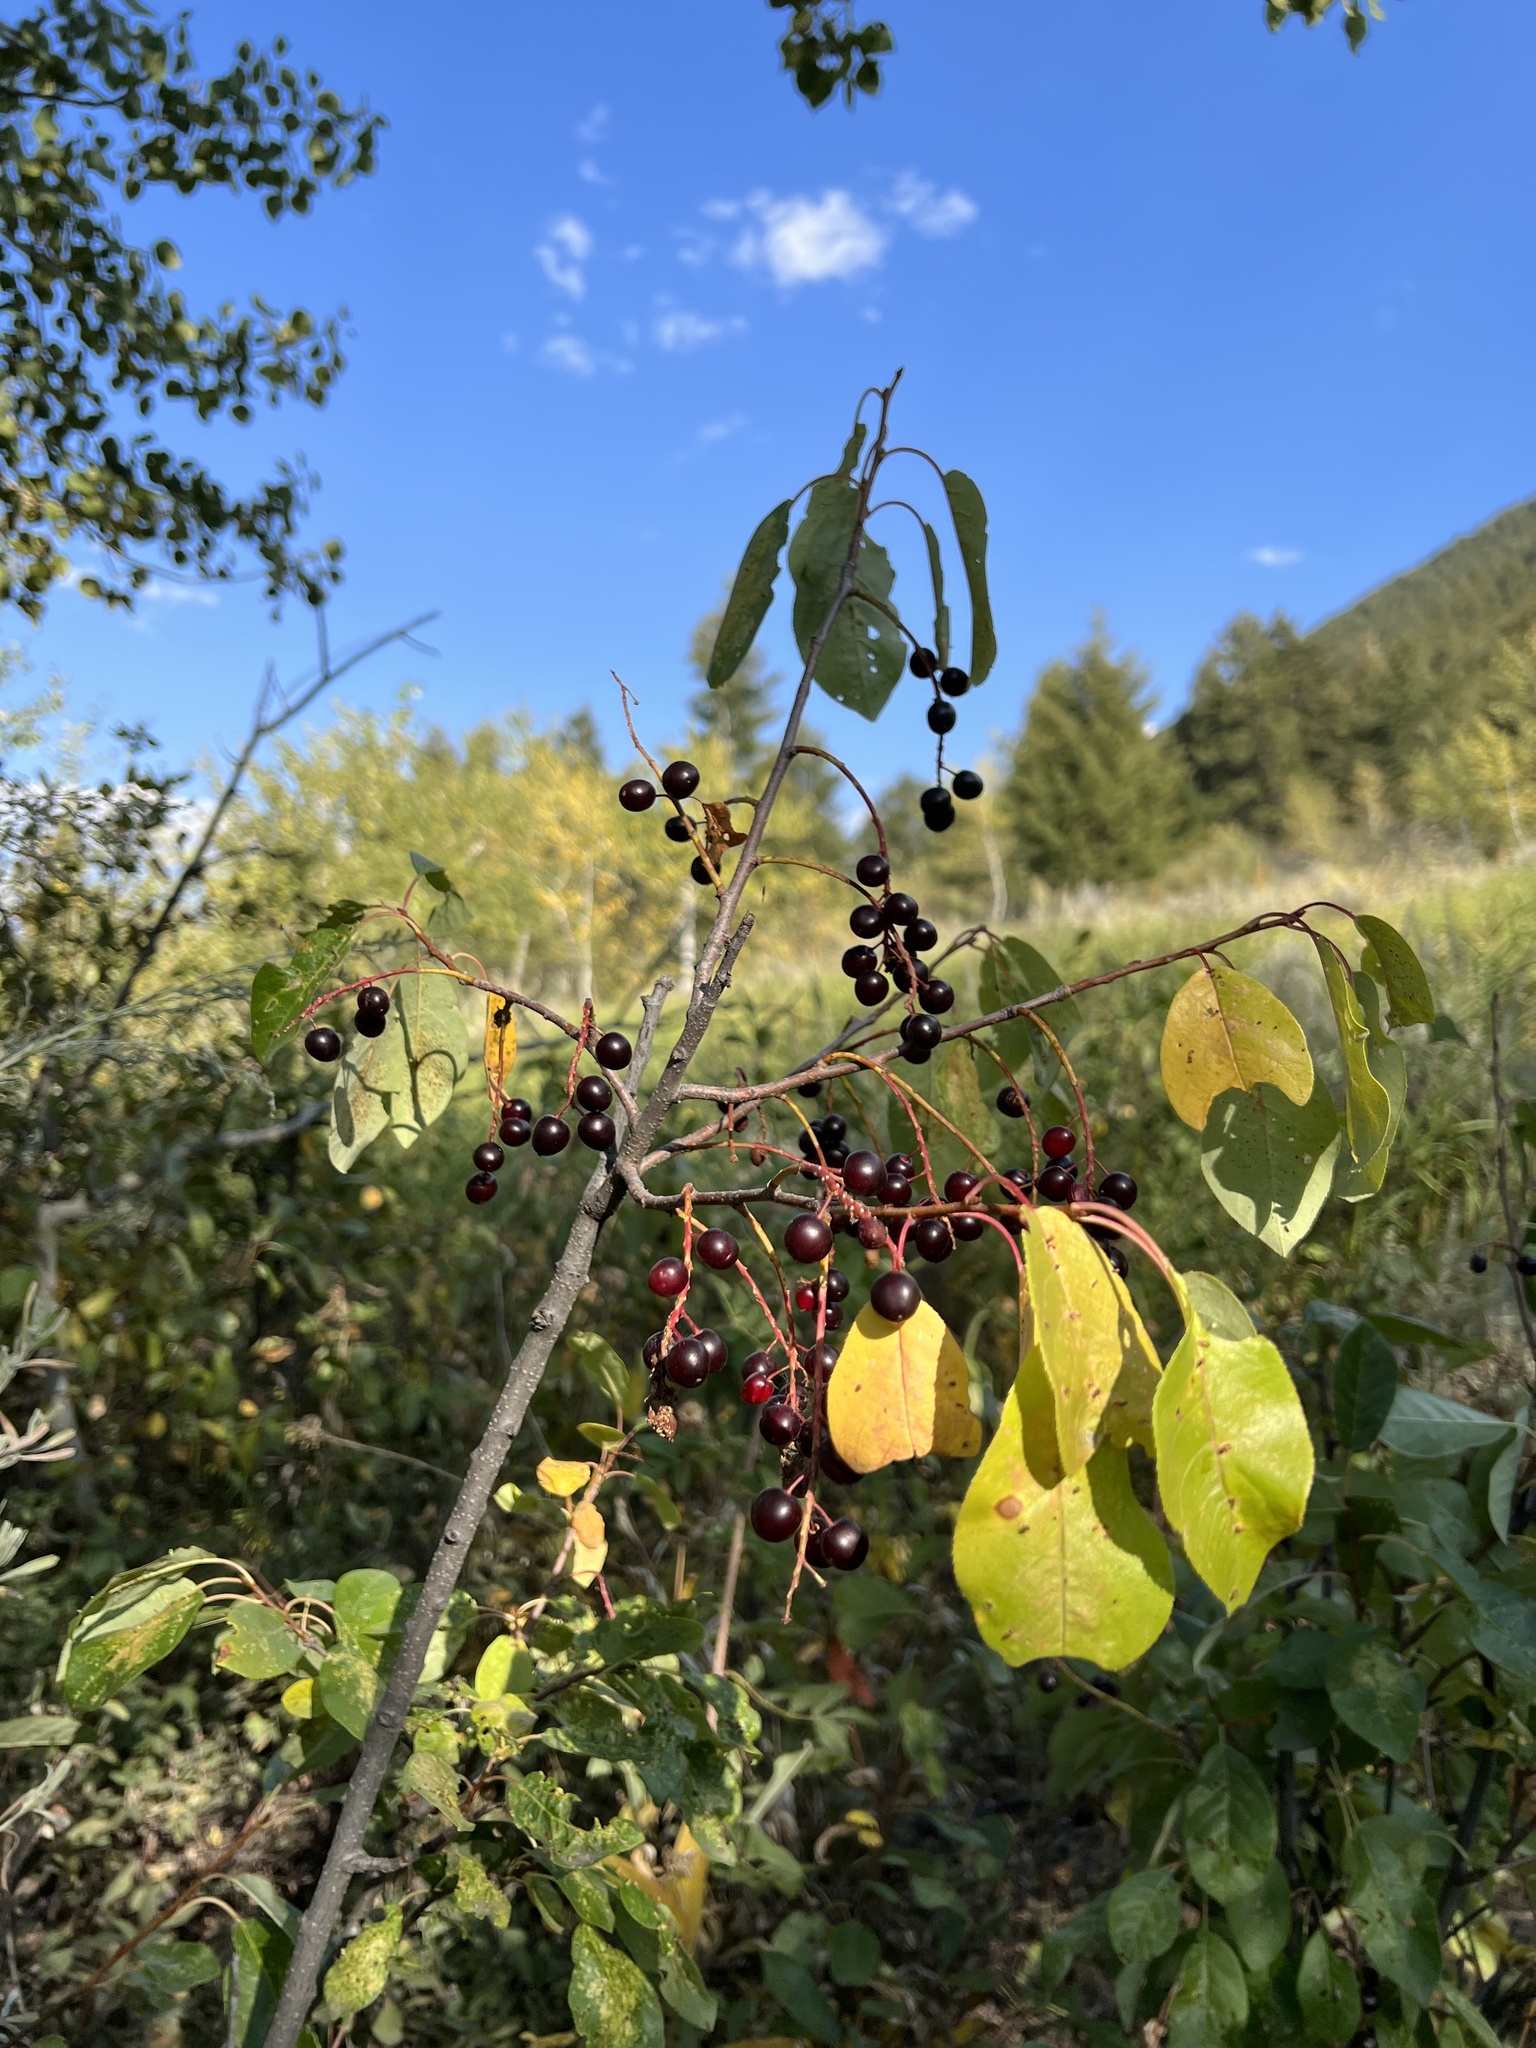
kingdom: Plantae
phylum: Tracheophyta
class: Magnoliopsida
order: Rosales
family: Rosaceae
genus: Prunus
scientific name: Prunus virginiana
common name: Chokecherry
